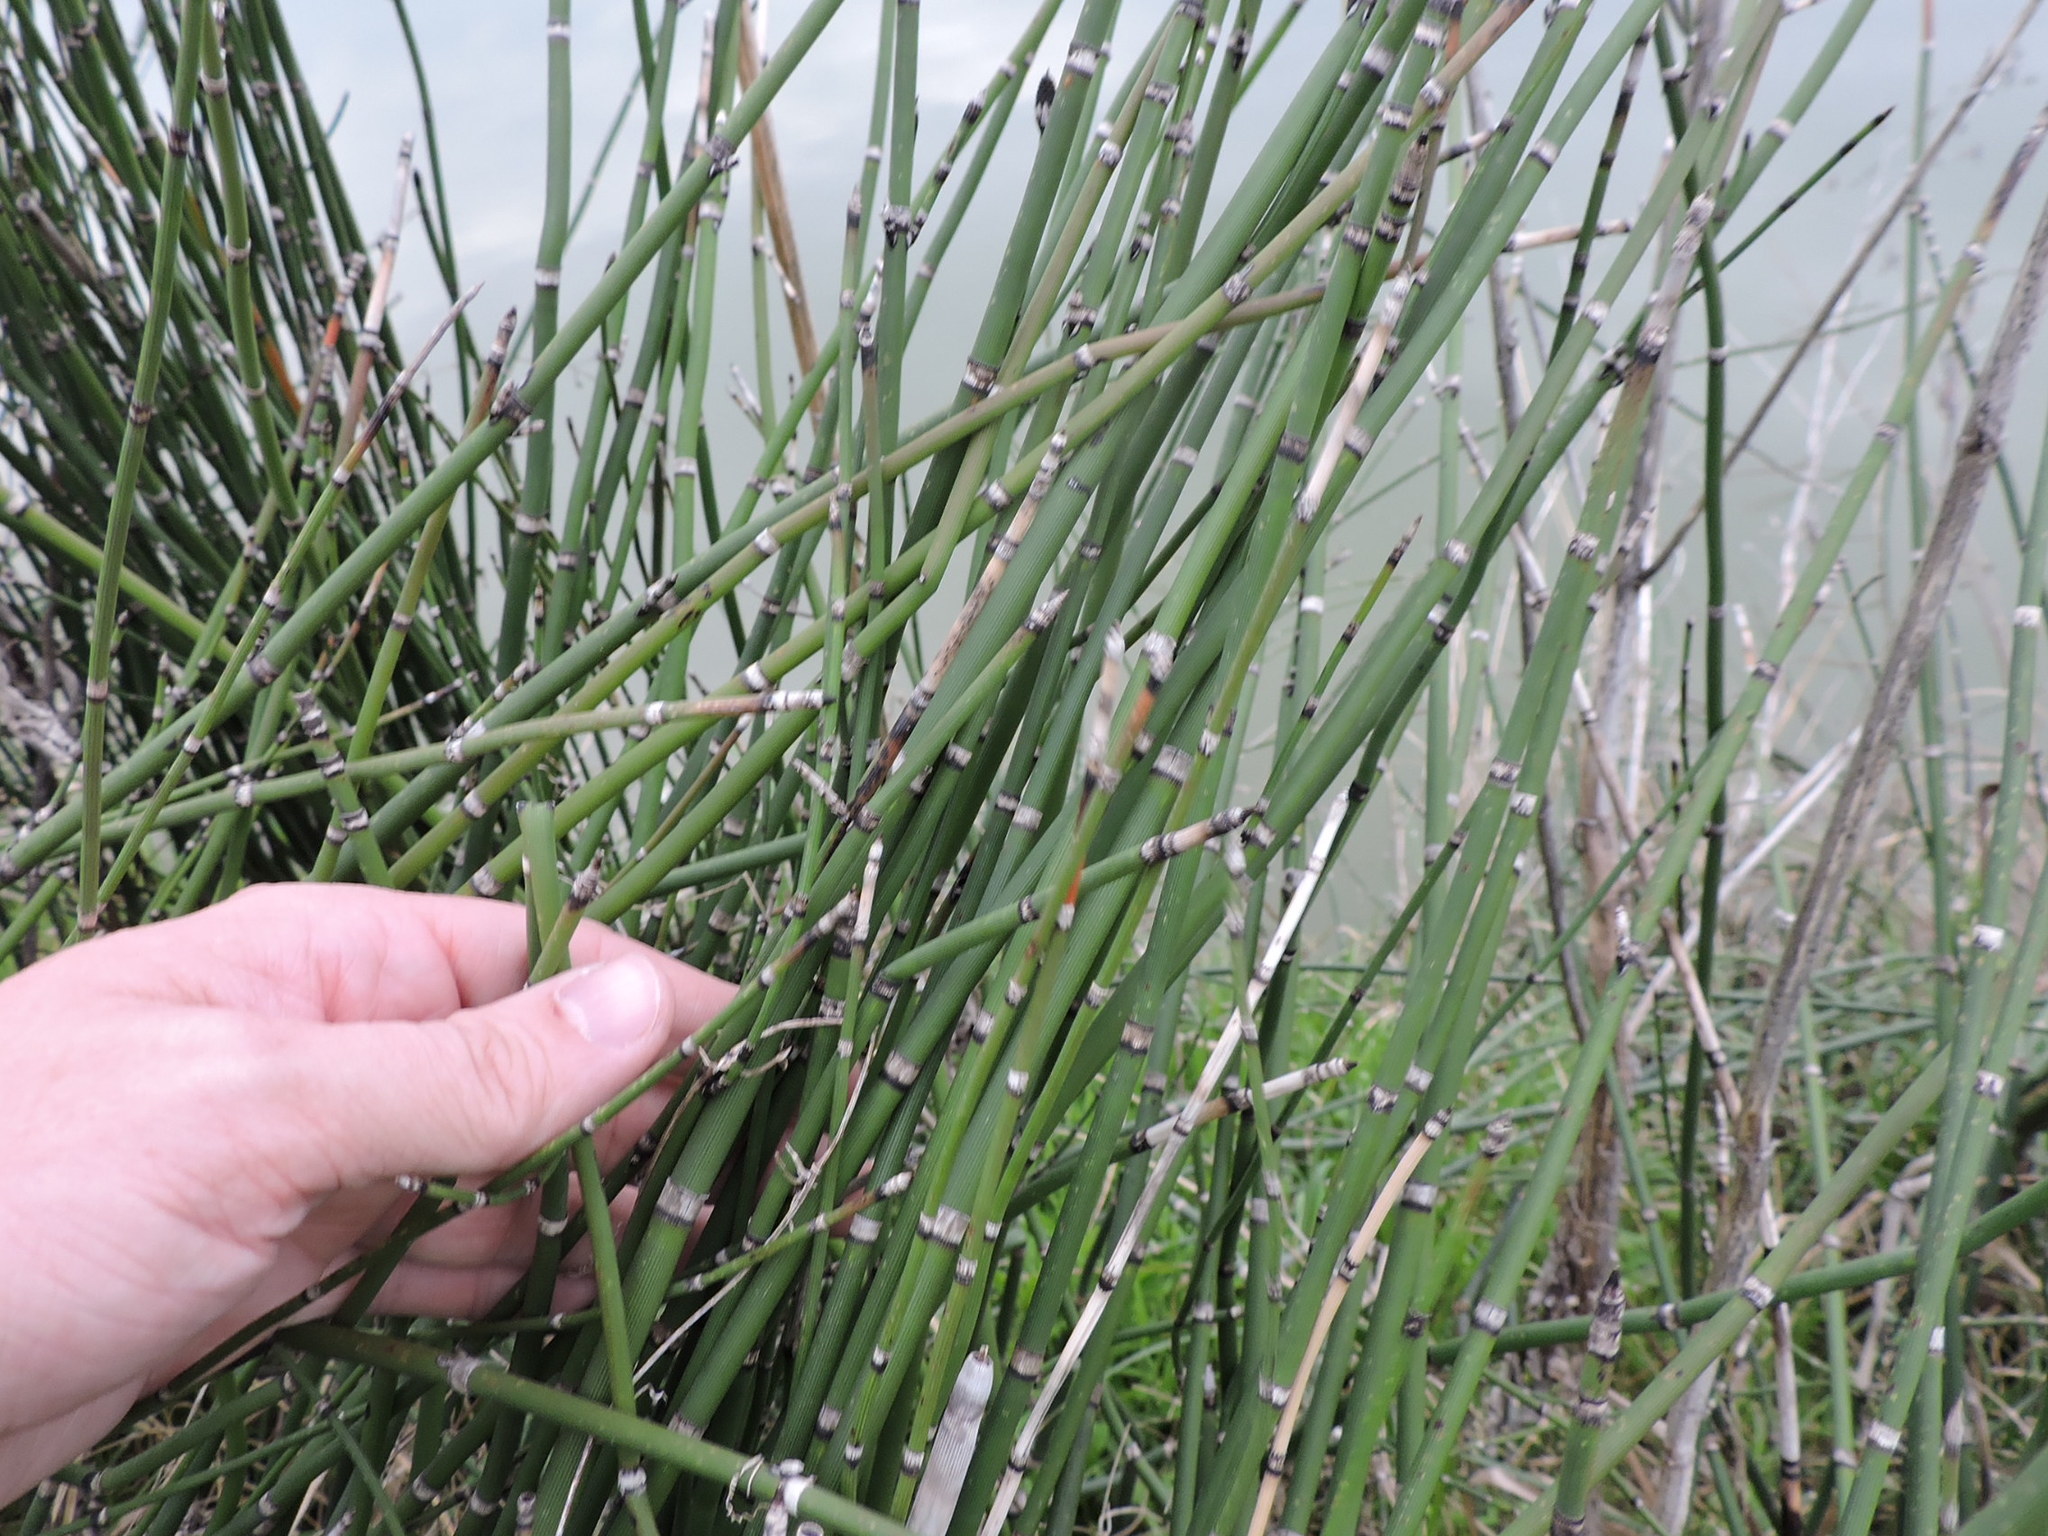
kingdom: Plantae
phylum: Tracheophyta
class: Polypodiopsida
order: Equisetales
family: Equisetaceae
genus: Equisetum
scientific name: Equisetum hyemale
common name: Rough horsetail
